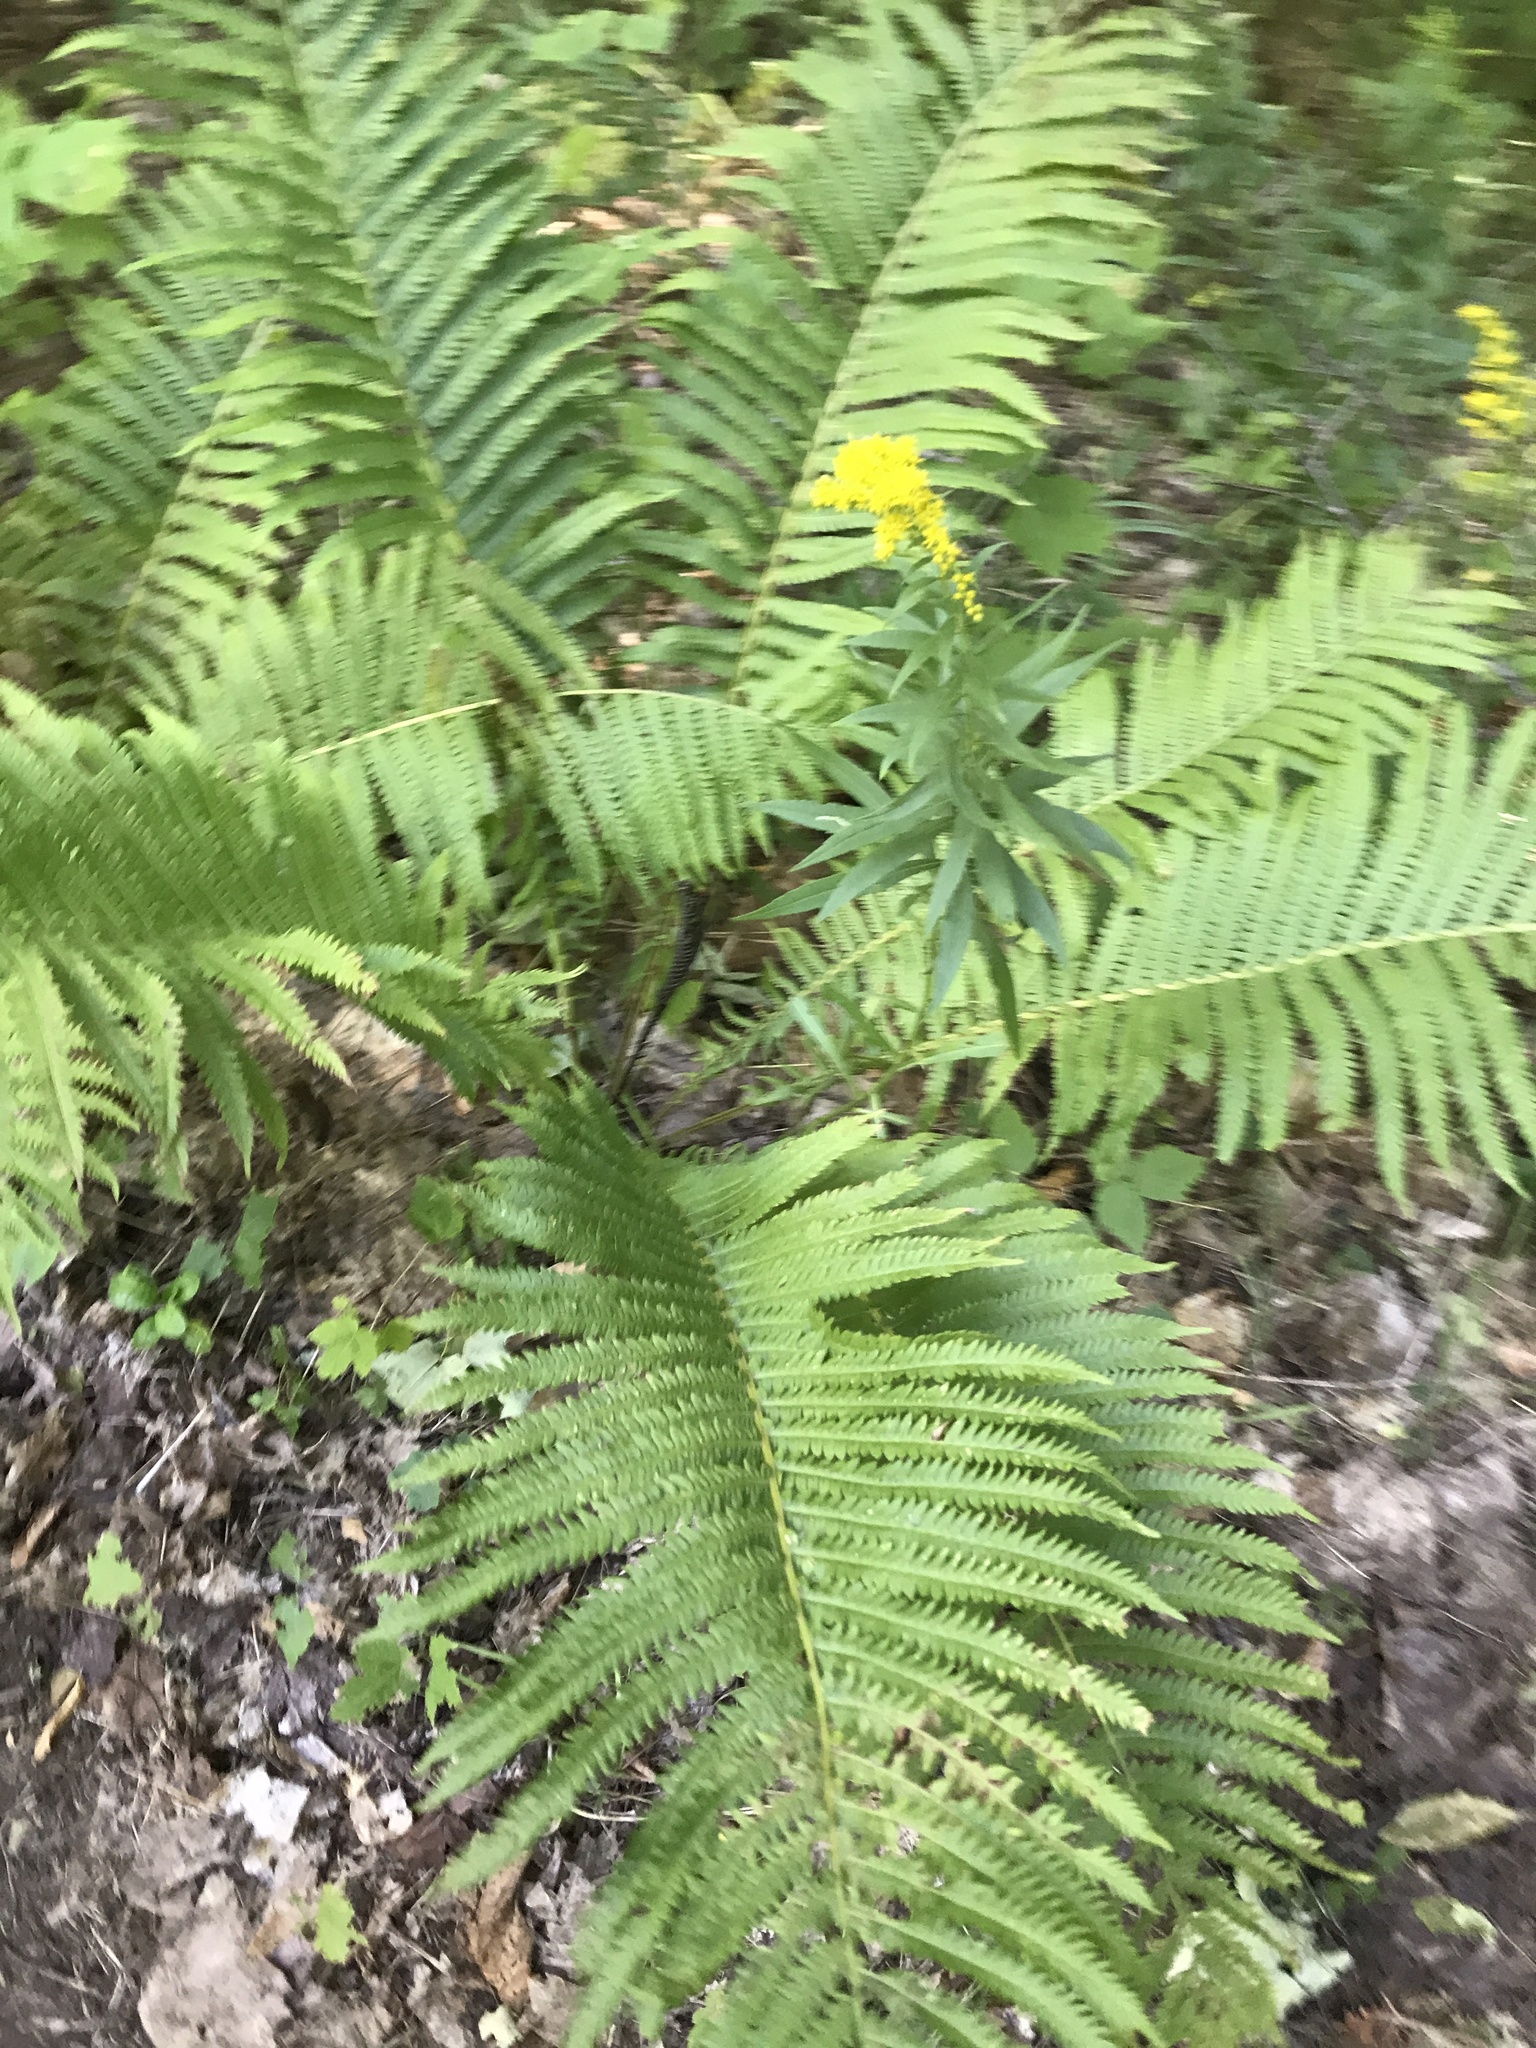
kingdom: Plantae
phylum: Tracheophyta
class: Polypodiopsida
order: Polypodiales
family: Onocleaceae
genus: Matteuccia
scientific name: Matteuccia struthiopteris
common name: Ostrich fern
